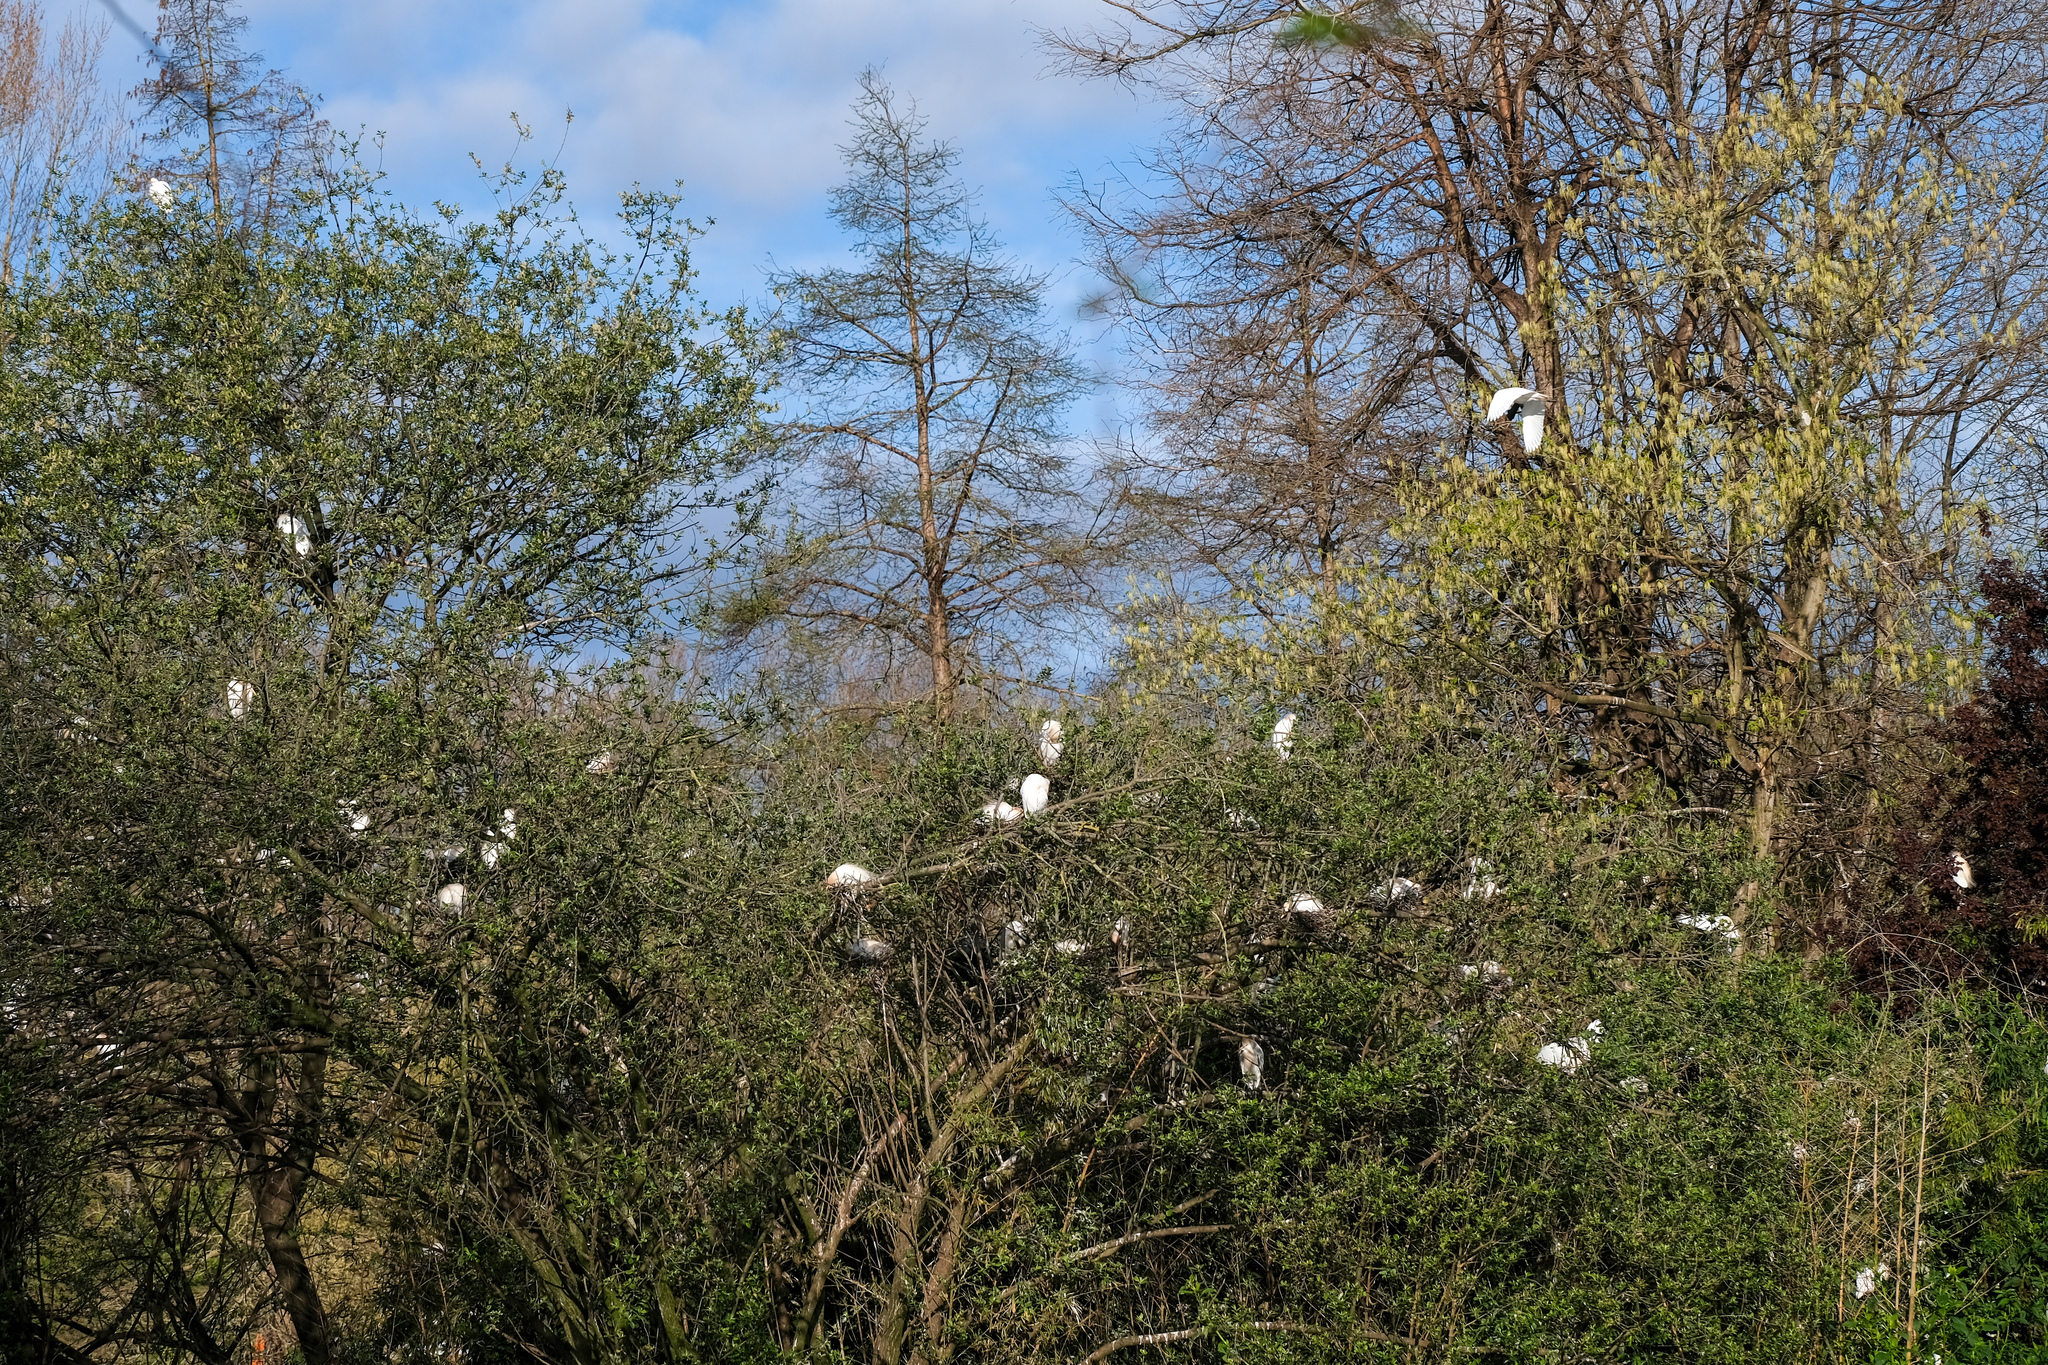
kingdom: Animalia
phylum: Chordata
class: Aves
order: Pelecaniformes
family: Ardeidae
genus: Bubulcus
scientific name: Bubulcus ibis
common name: Cattle egret
